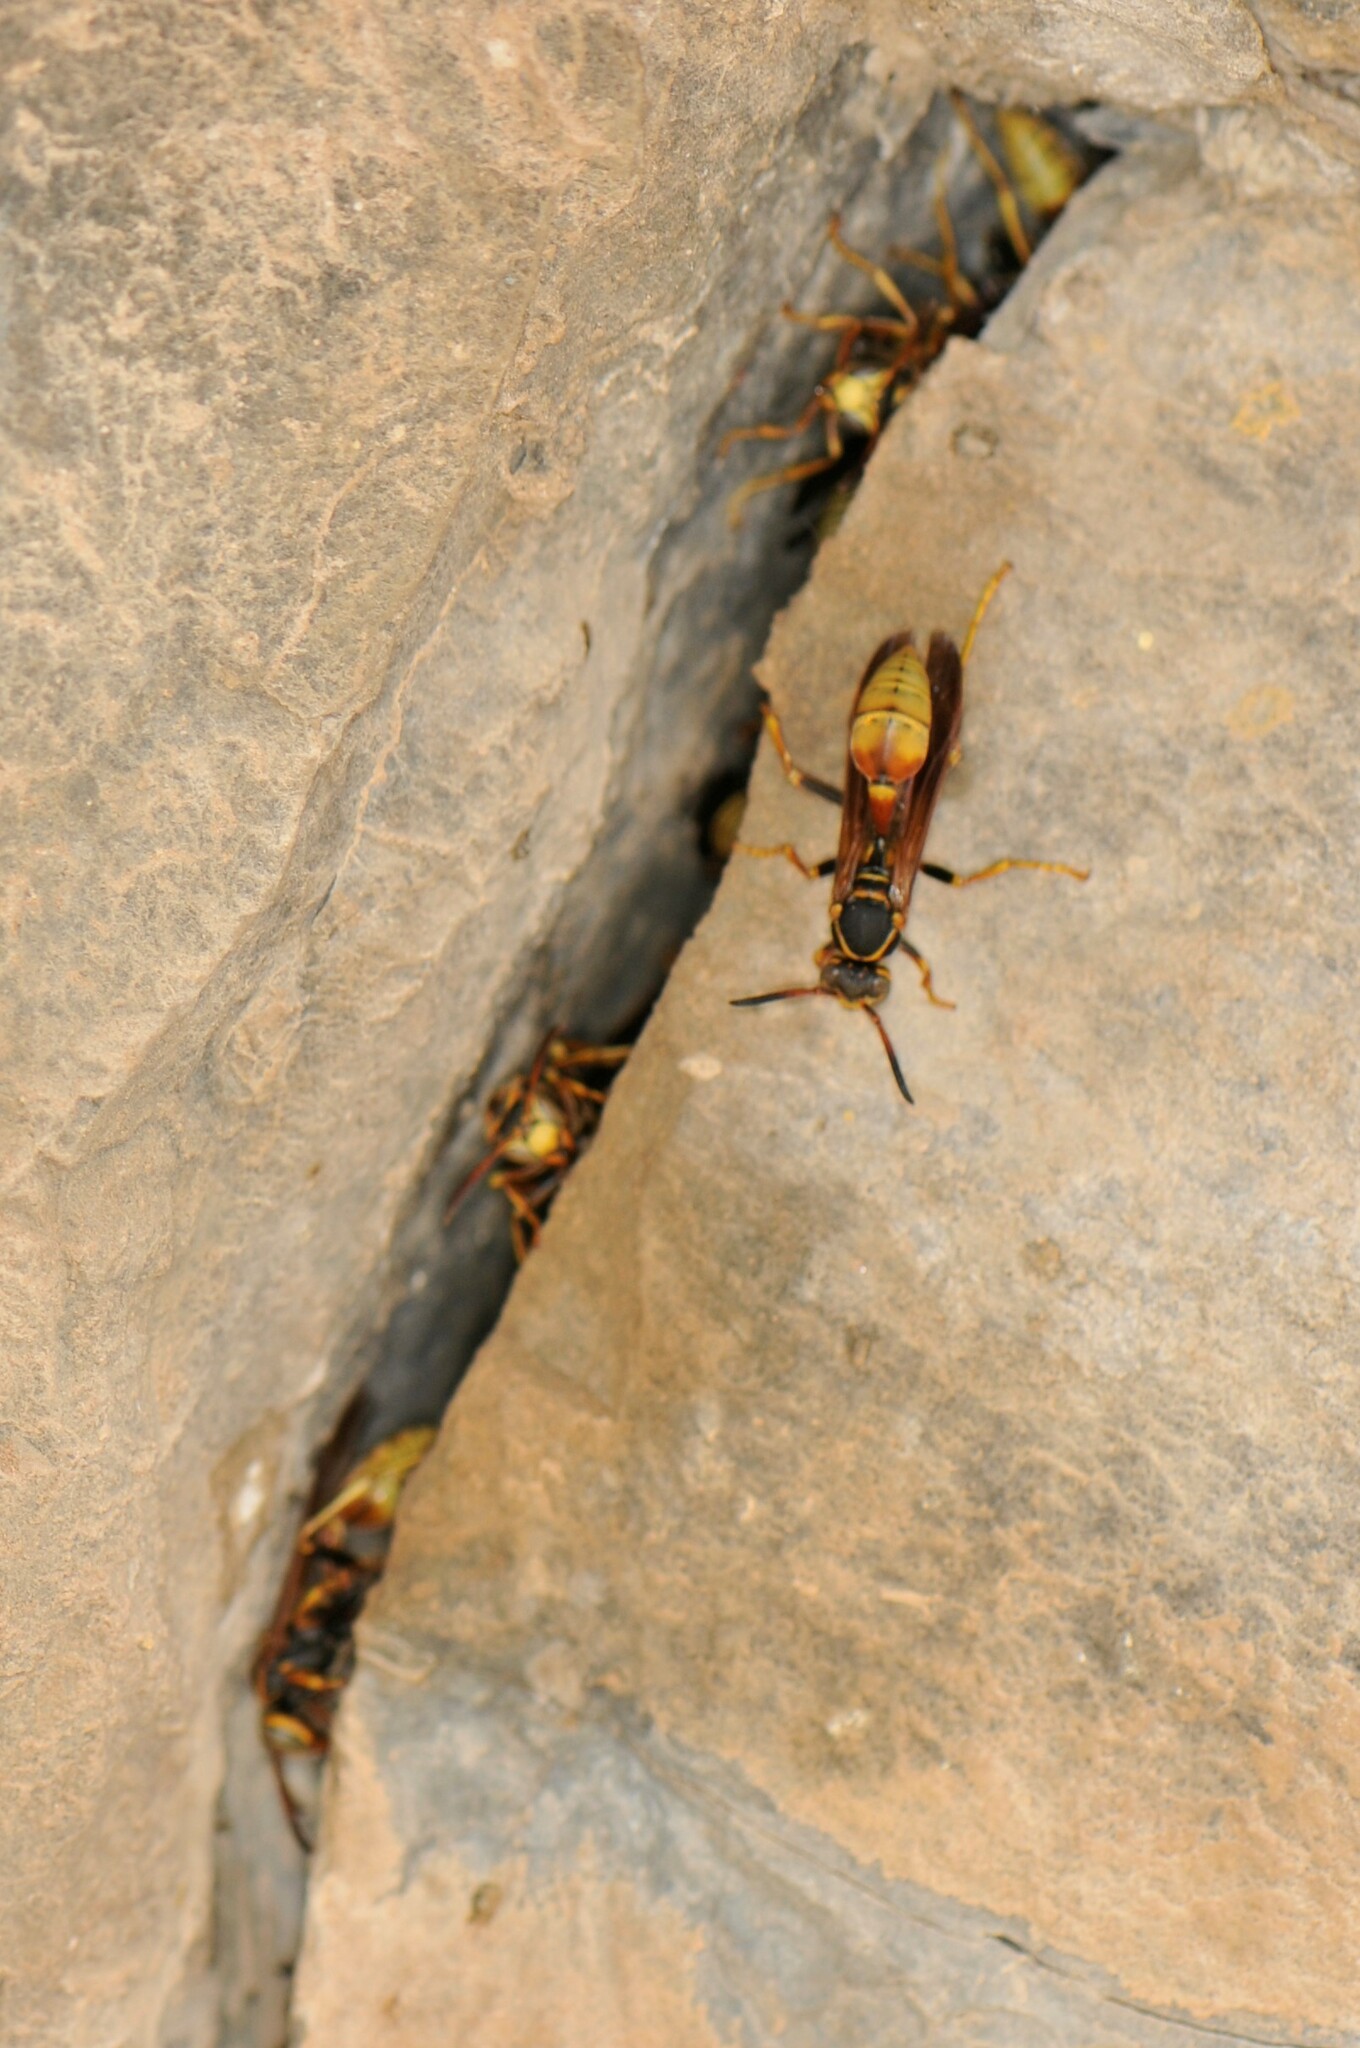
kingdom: Animalia
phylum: Arthropoda
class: Insecta
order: Hymenoptera
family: Vespidae
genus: Mischocyttarus
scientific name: Mischocyttarus flavitarsis
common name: Wasp
